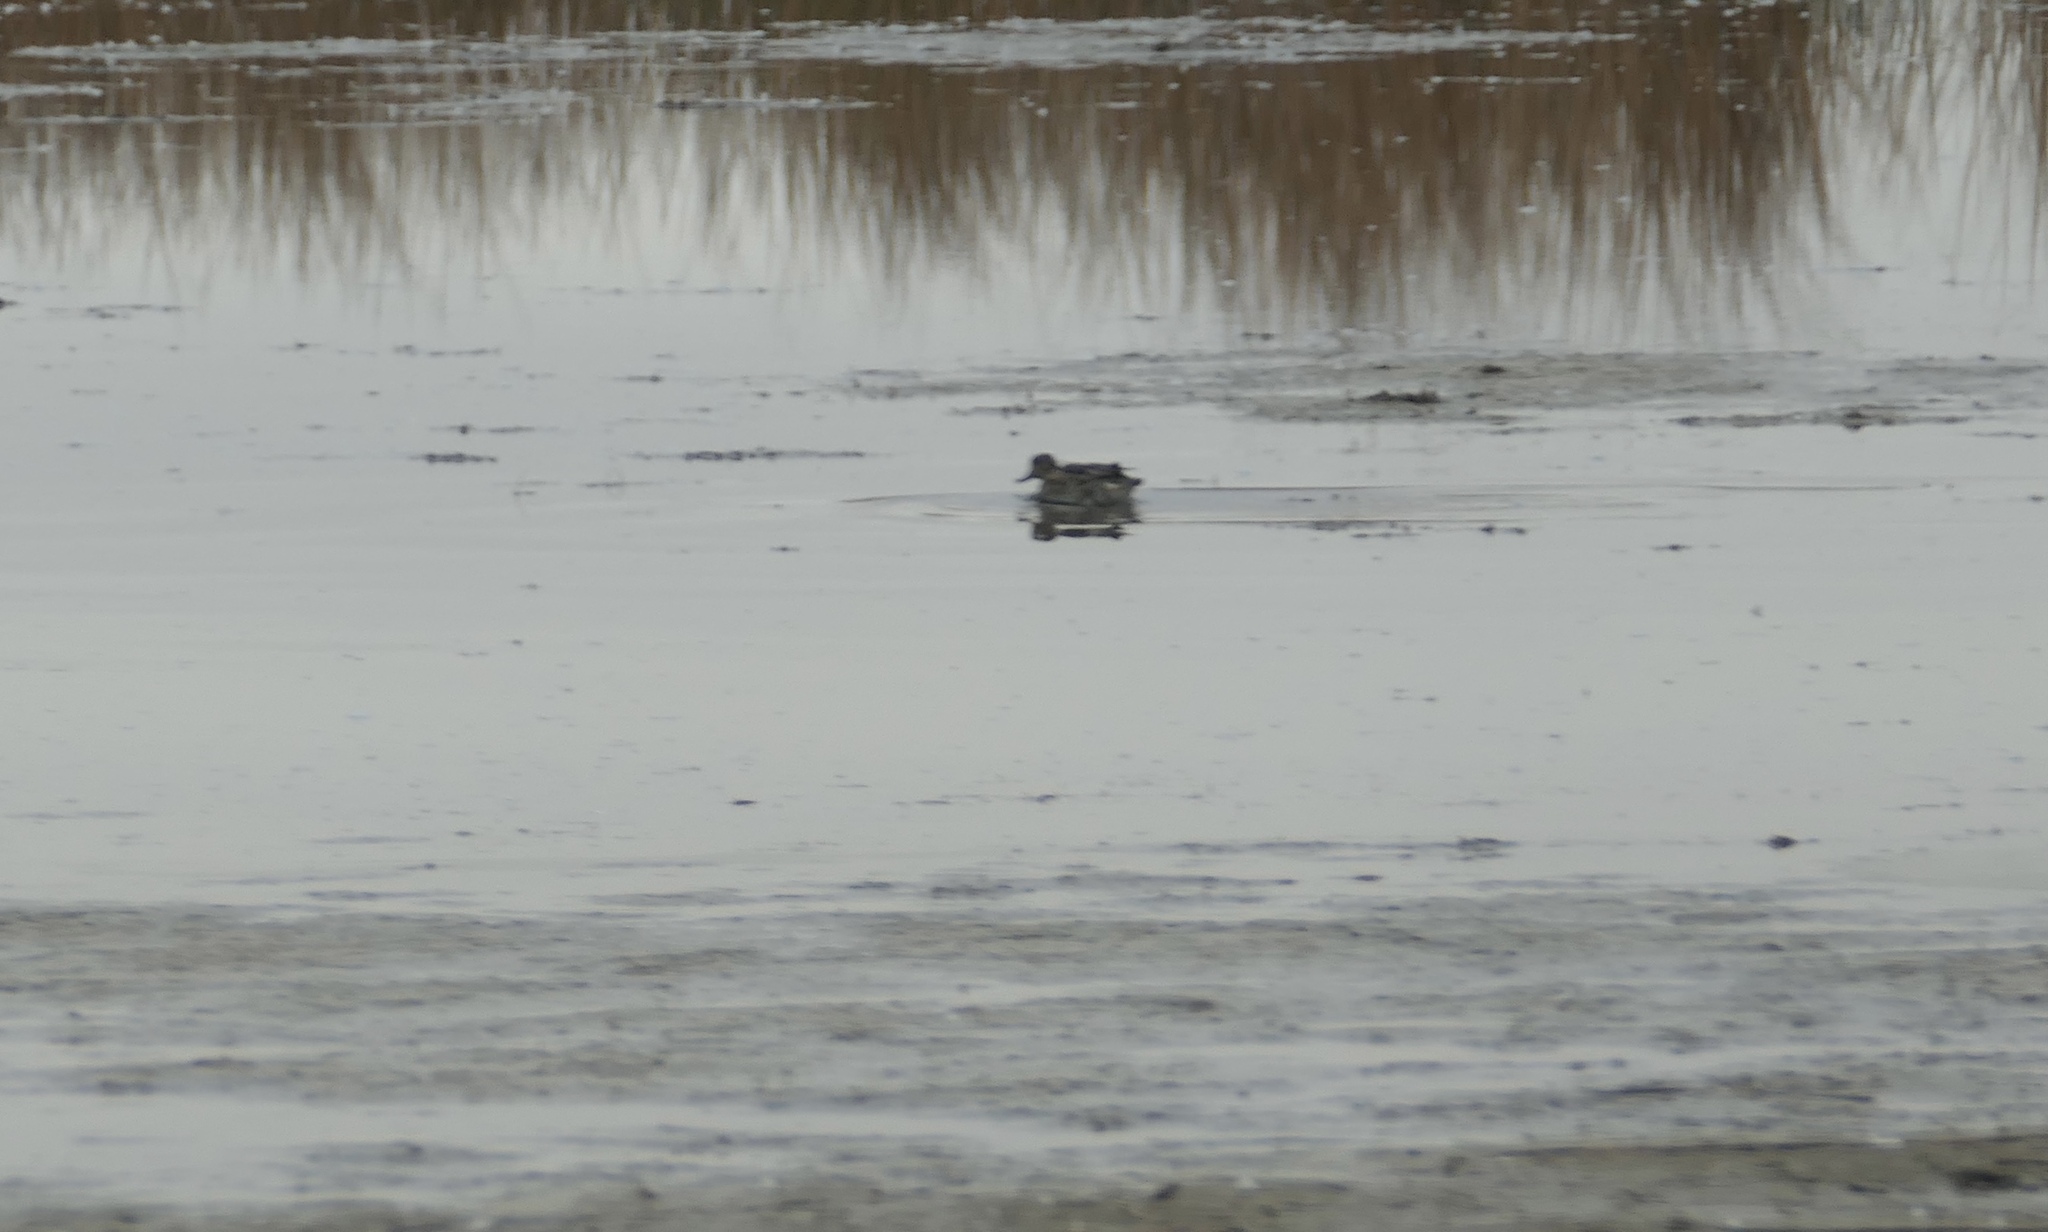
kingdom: Animalia
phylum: Chordata
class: Aves
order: Anseriformes
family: Anatidae
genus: Anas
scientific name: Anas crecca
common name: Eurasian teal
